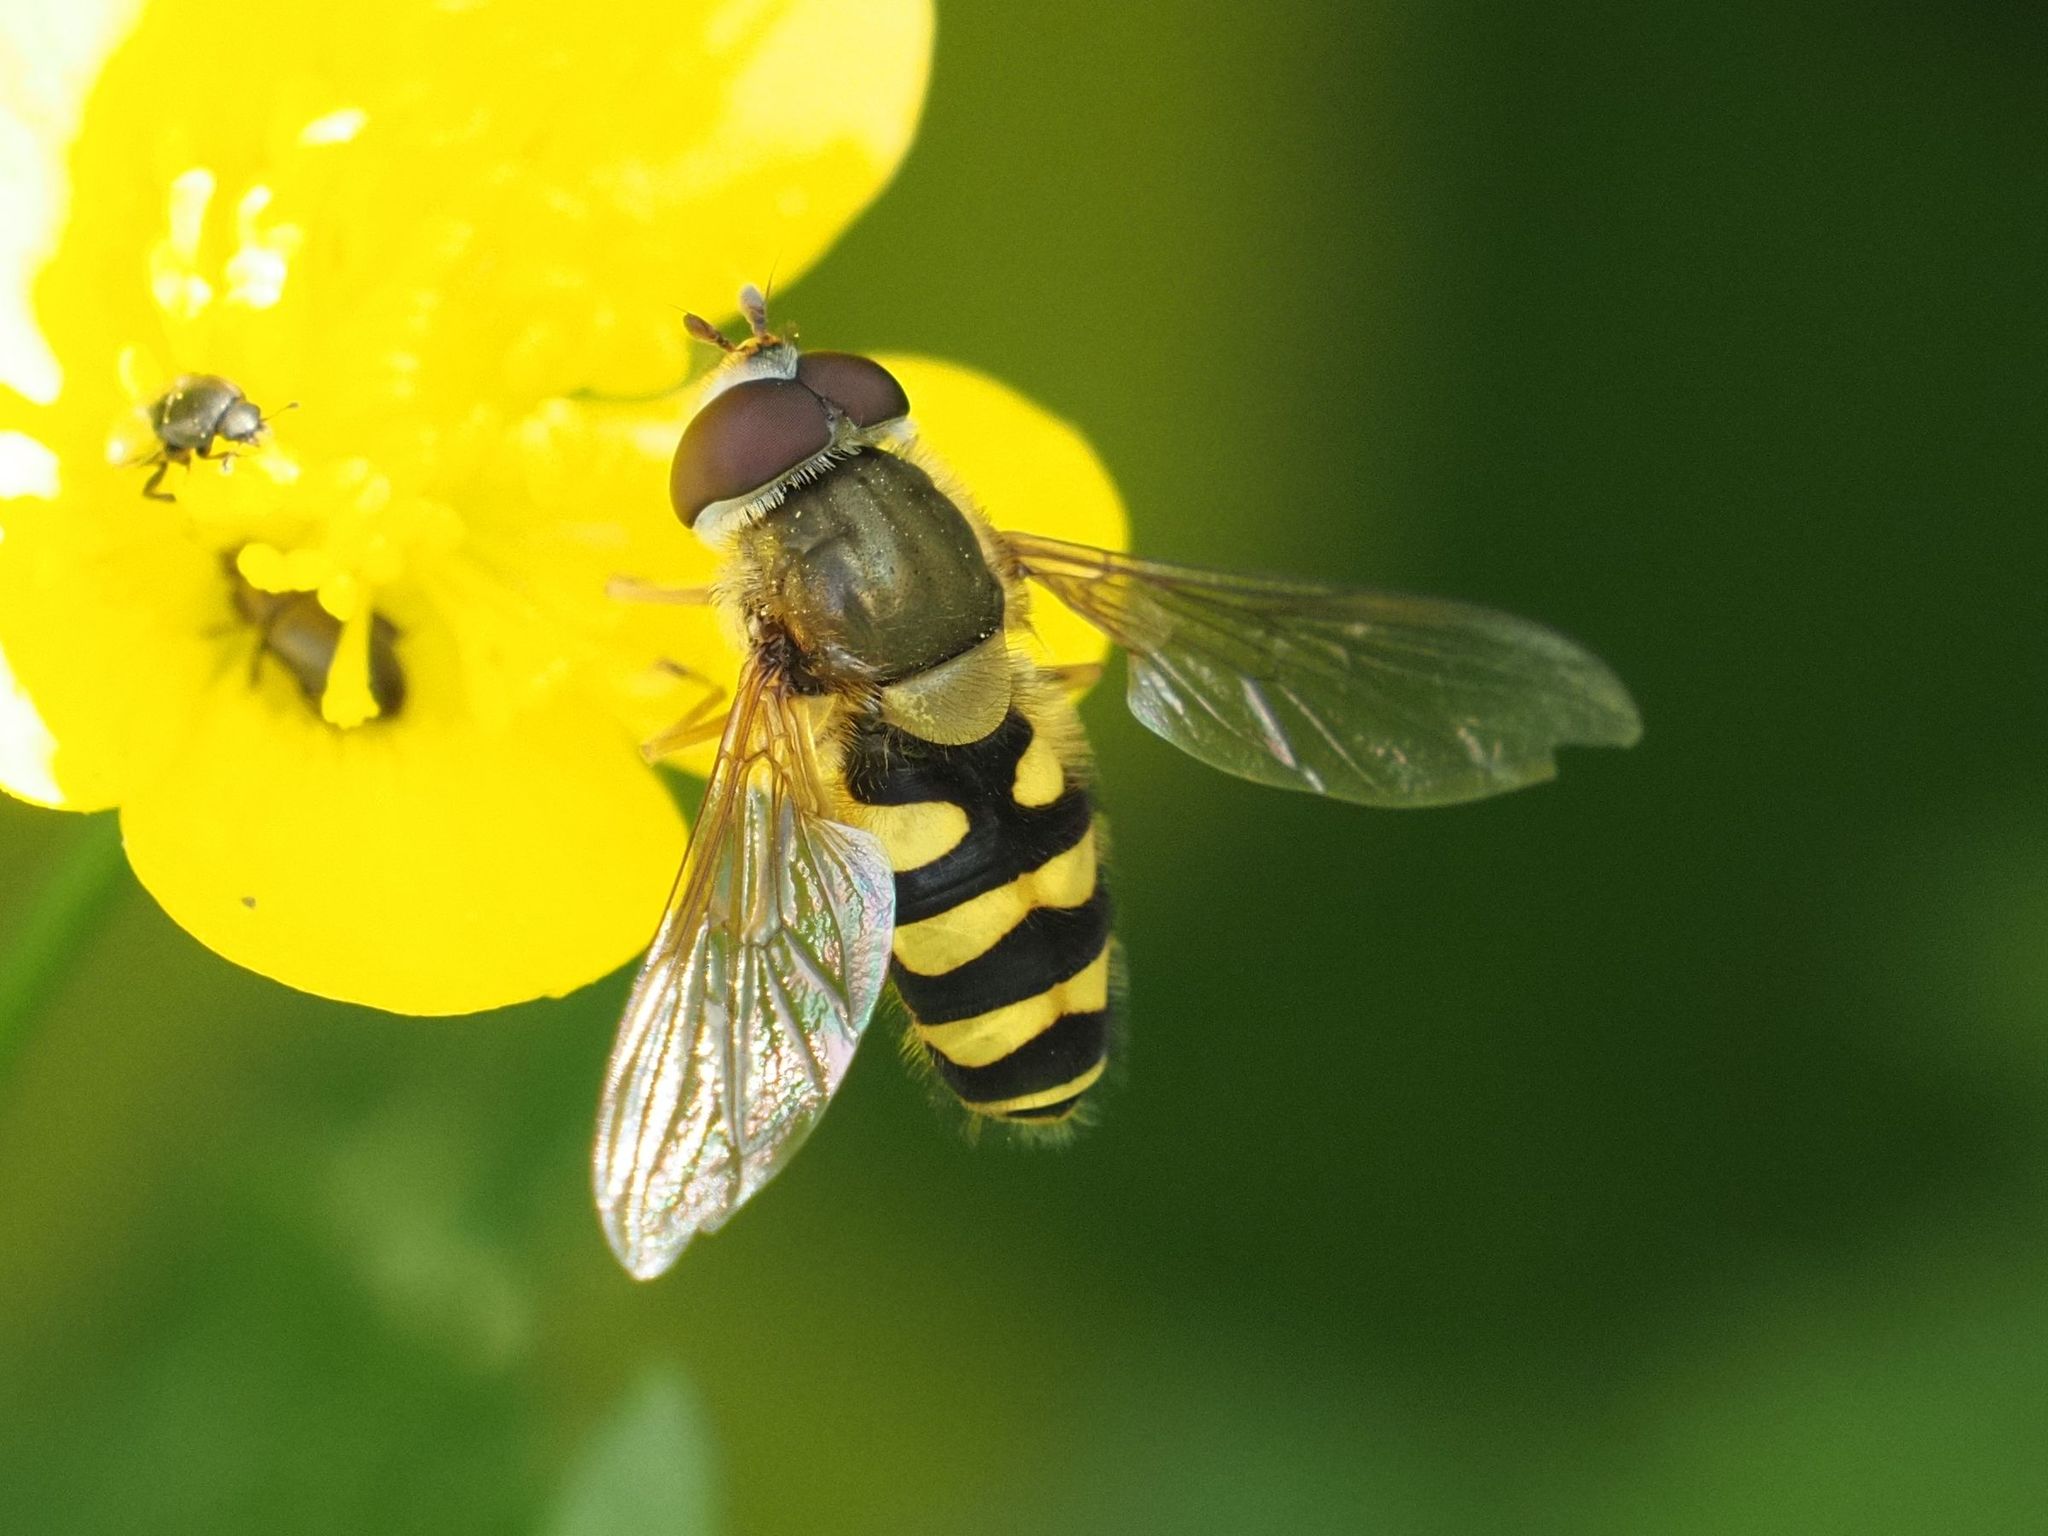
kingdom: Animalia
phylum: Arthropoda
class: Insecta
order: Diptera
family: Syrphidae
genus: Syrphus
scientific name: Syrphus
